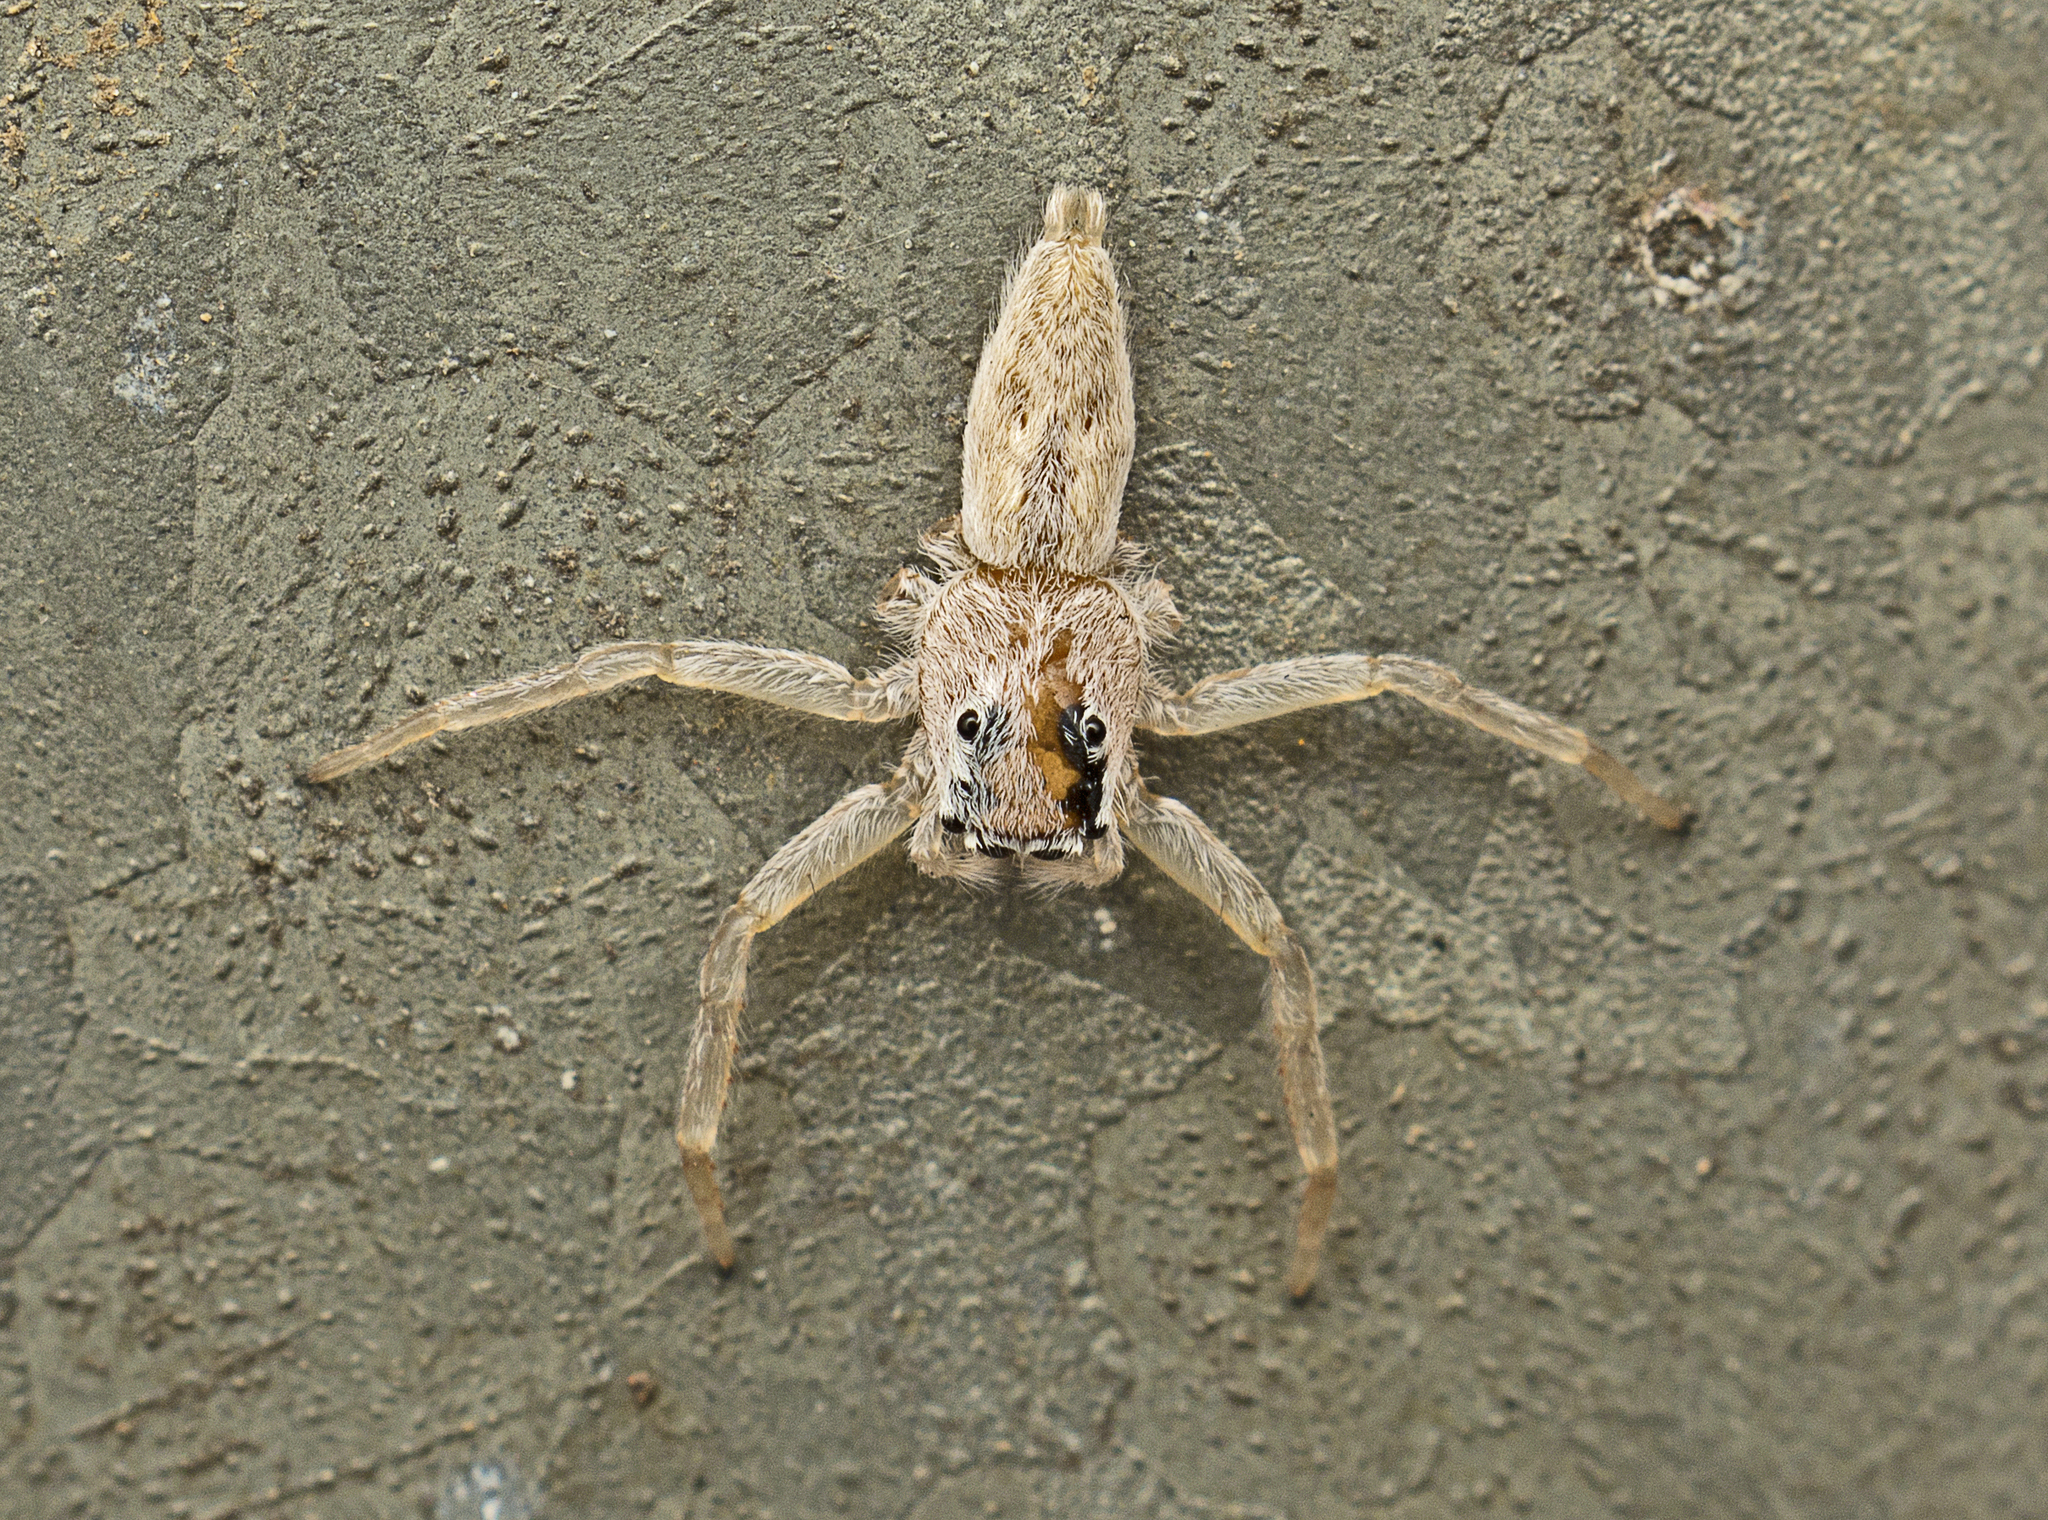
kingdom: Animalia
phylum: Arthropoda
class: Arachnida
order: Araneae
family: Salticidae
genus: Arasia
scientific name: Arasia mollicoma
